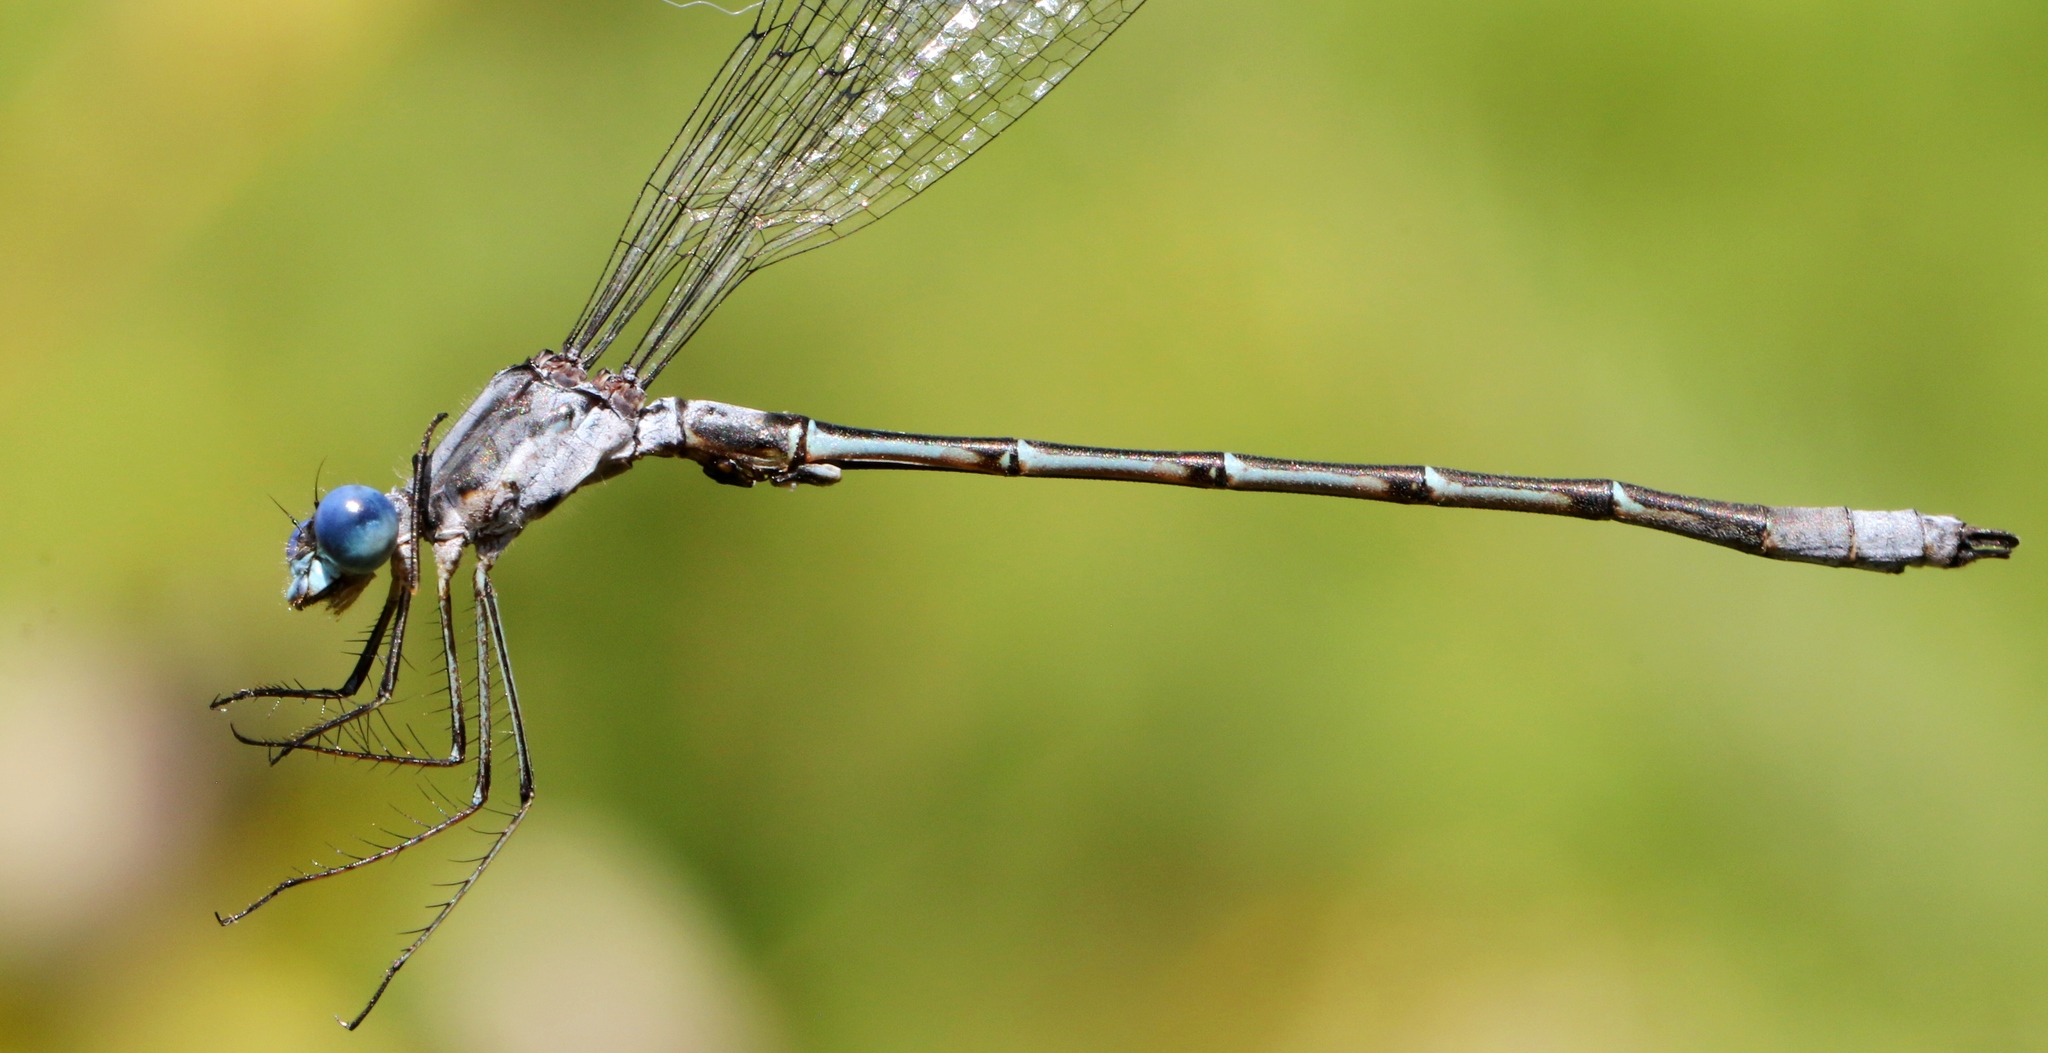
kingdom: Animalia
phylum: Arthropoda
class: Insecta
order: Odonata
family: Lestidae
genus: Lestes
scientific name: Lestes forcipatus
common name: Sweetflag spreadwing
